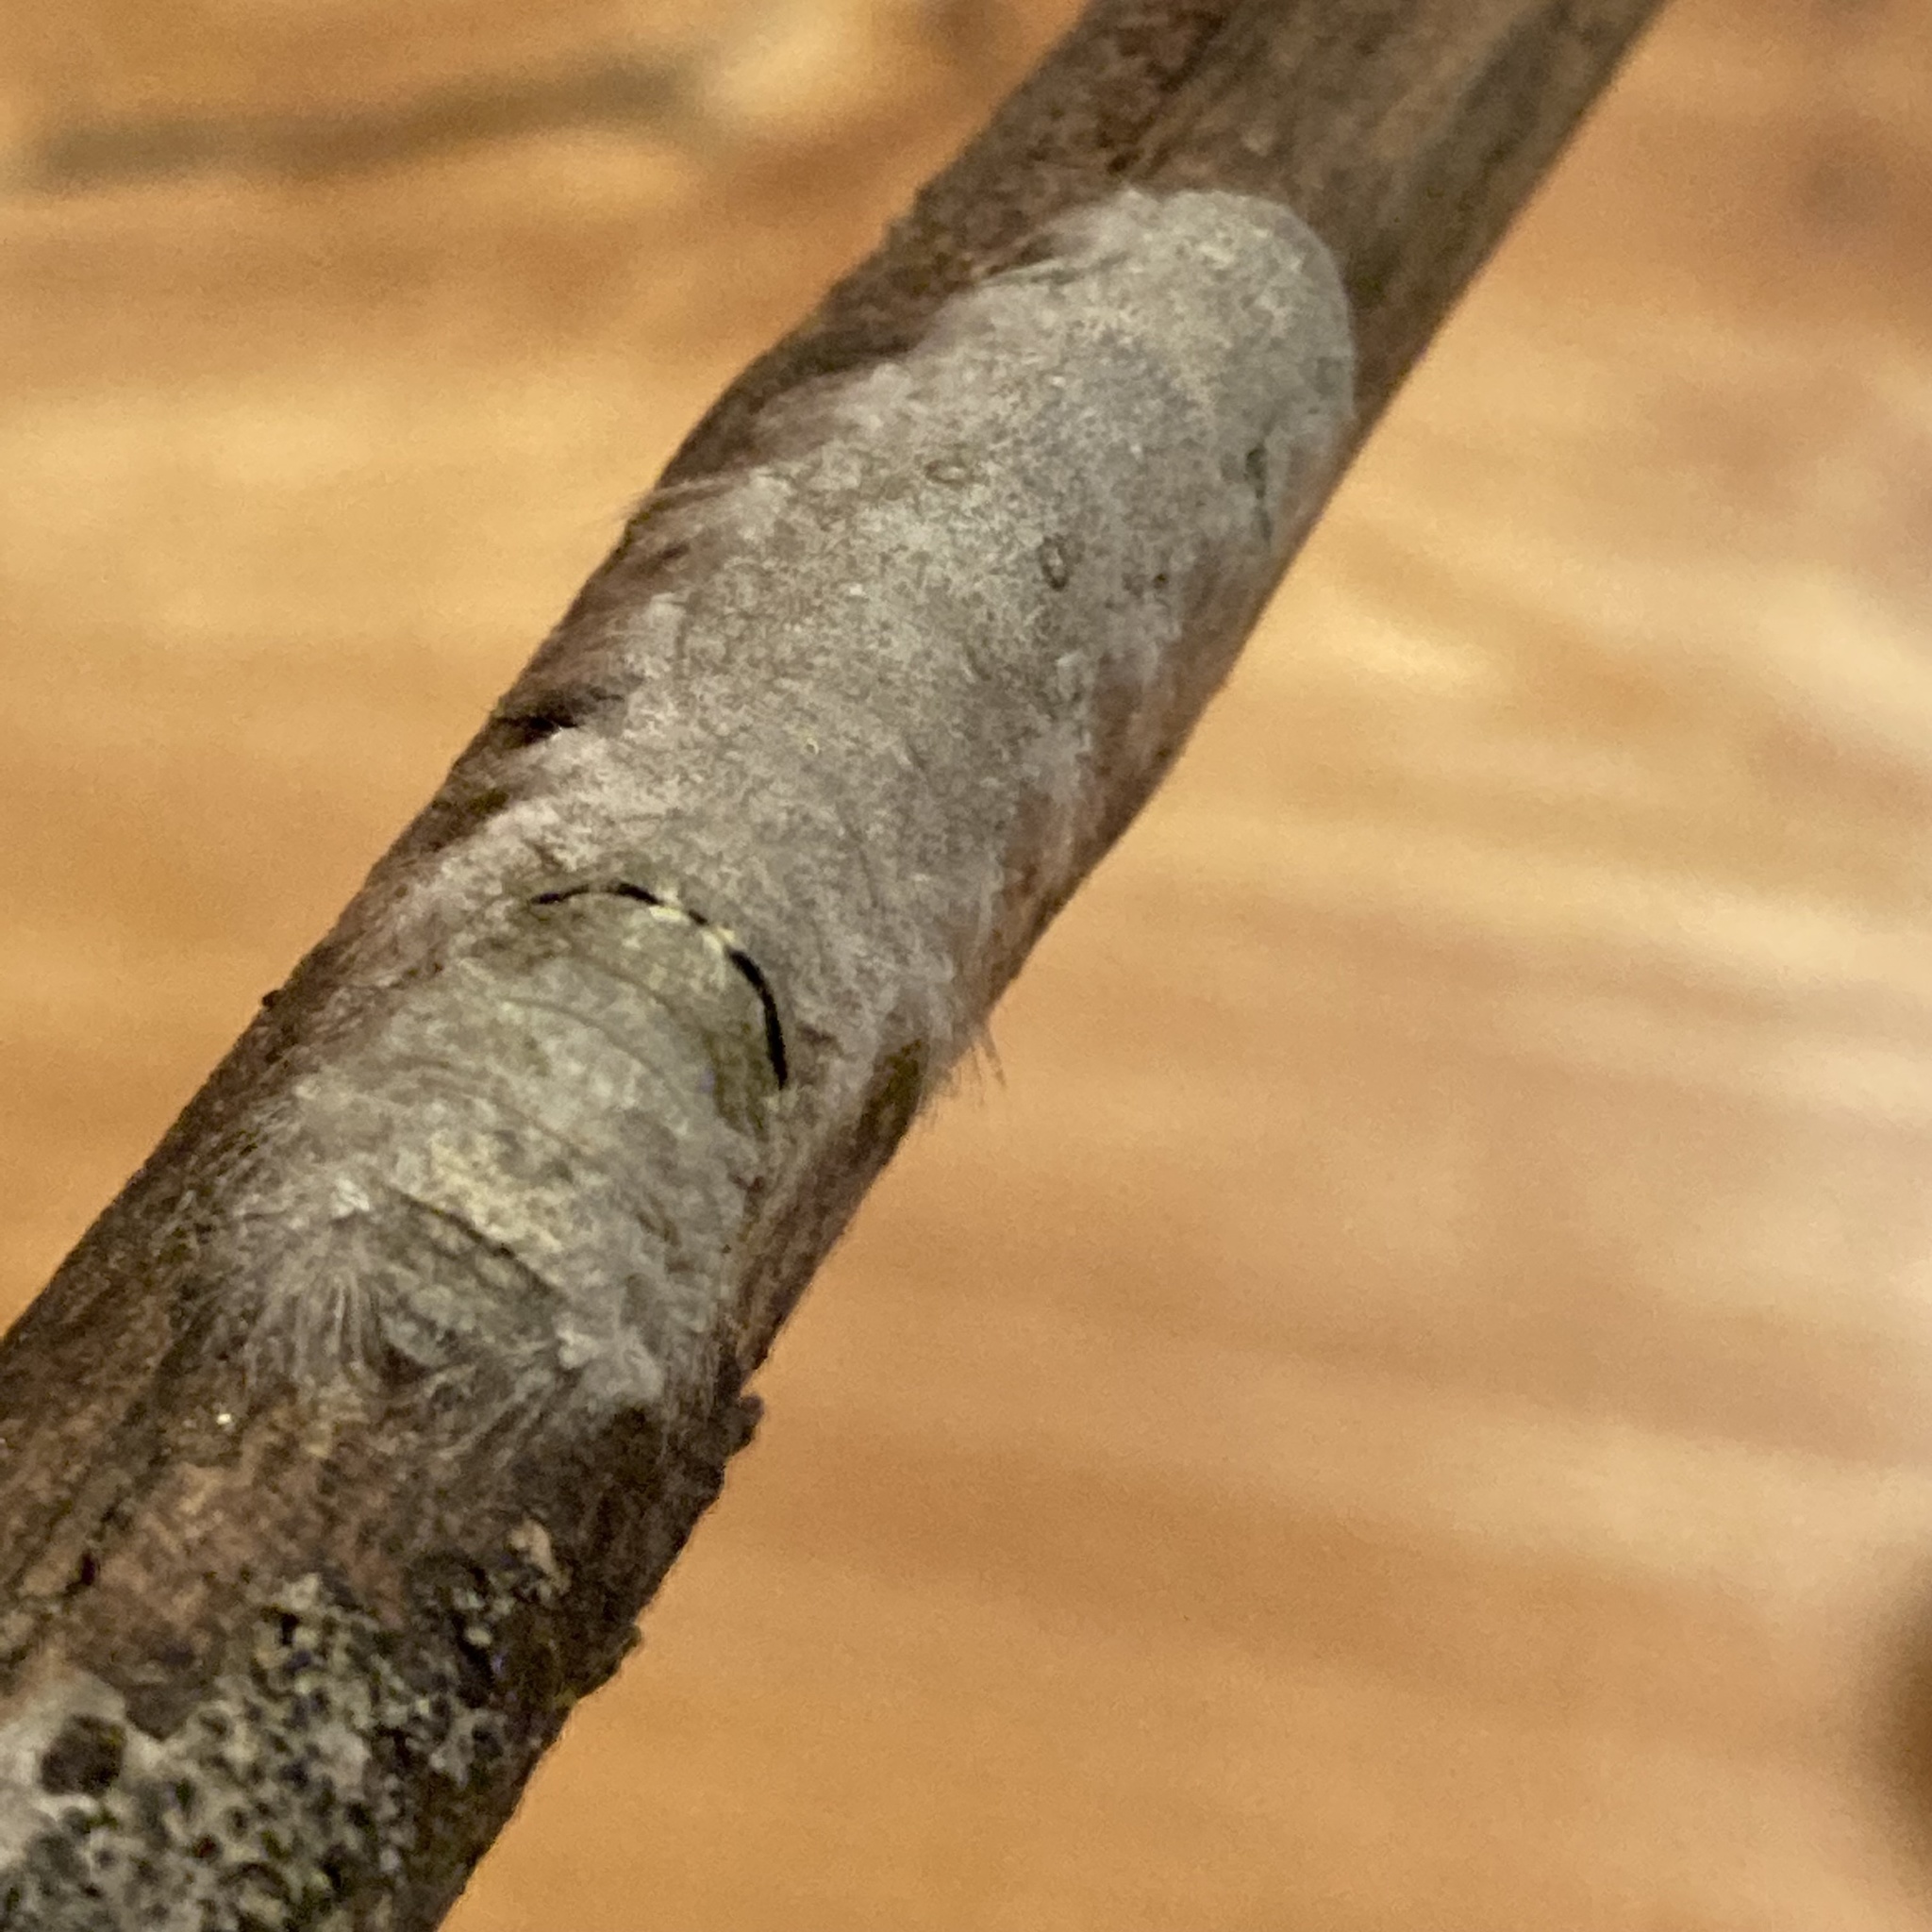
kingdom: Animalia
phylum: Arthropoda
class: Insecta
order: Lepidoptera
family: Lasiocampidae
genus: Artace
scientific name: Artace cribrarius
